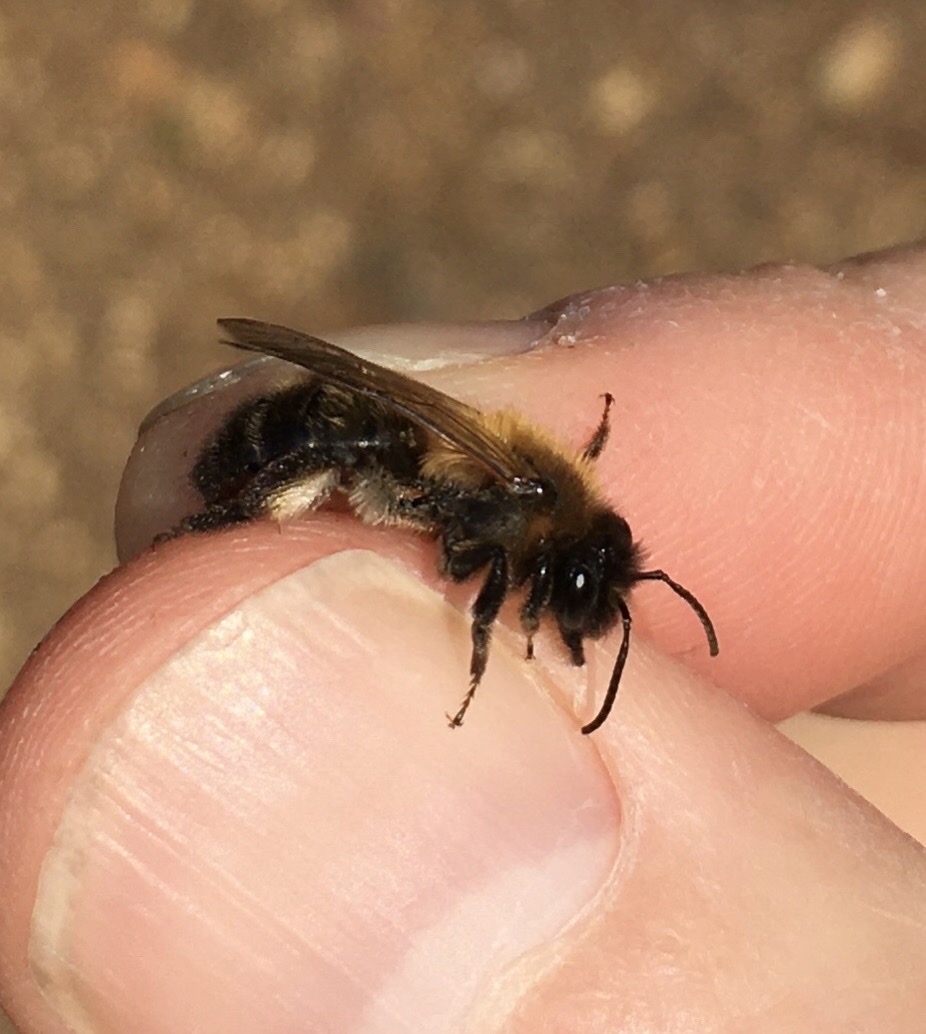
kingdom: Animalia
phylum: Arthropoda
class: Insecta
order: Hymenoptera
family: Andrenidae
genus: Andrena
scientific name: Andrena carantonica
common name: Chocolate mining bee
